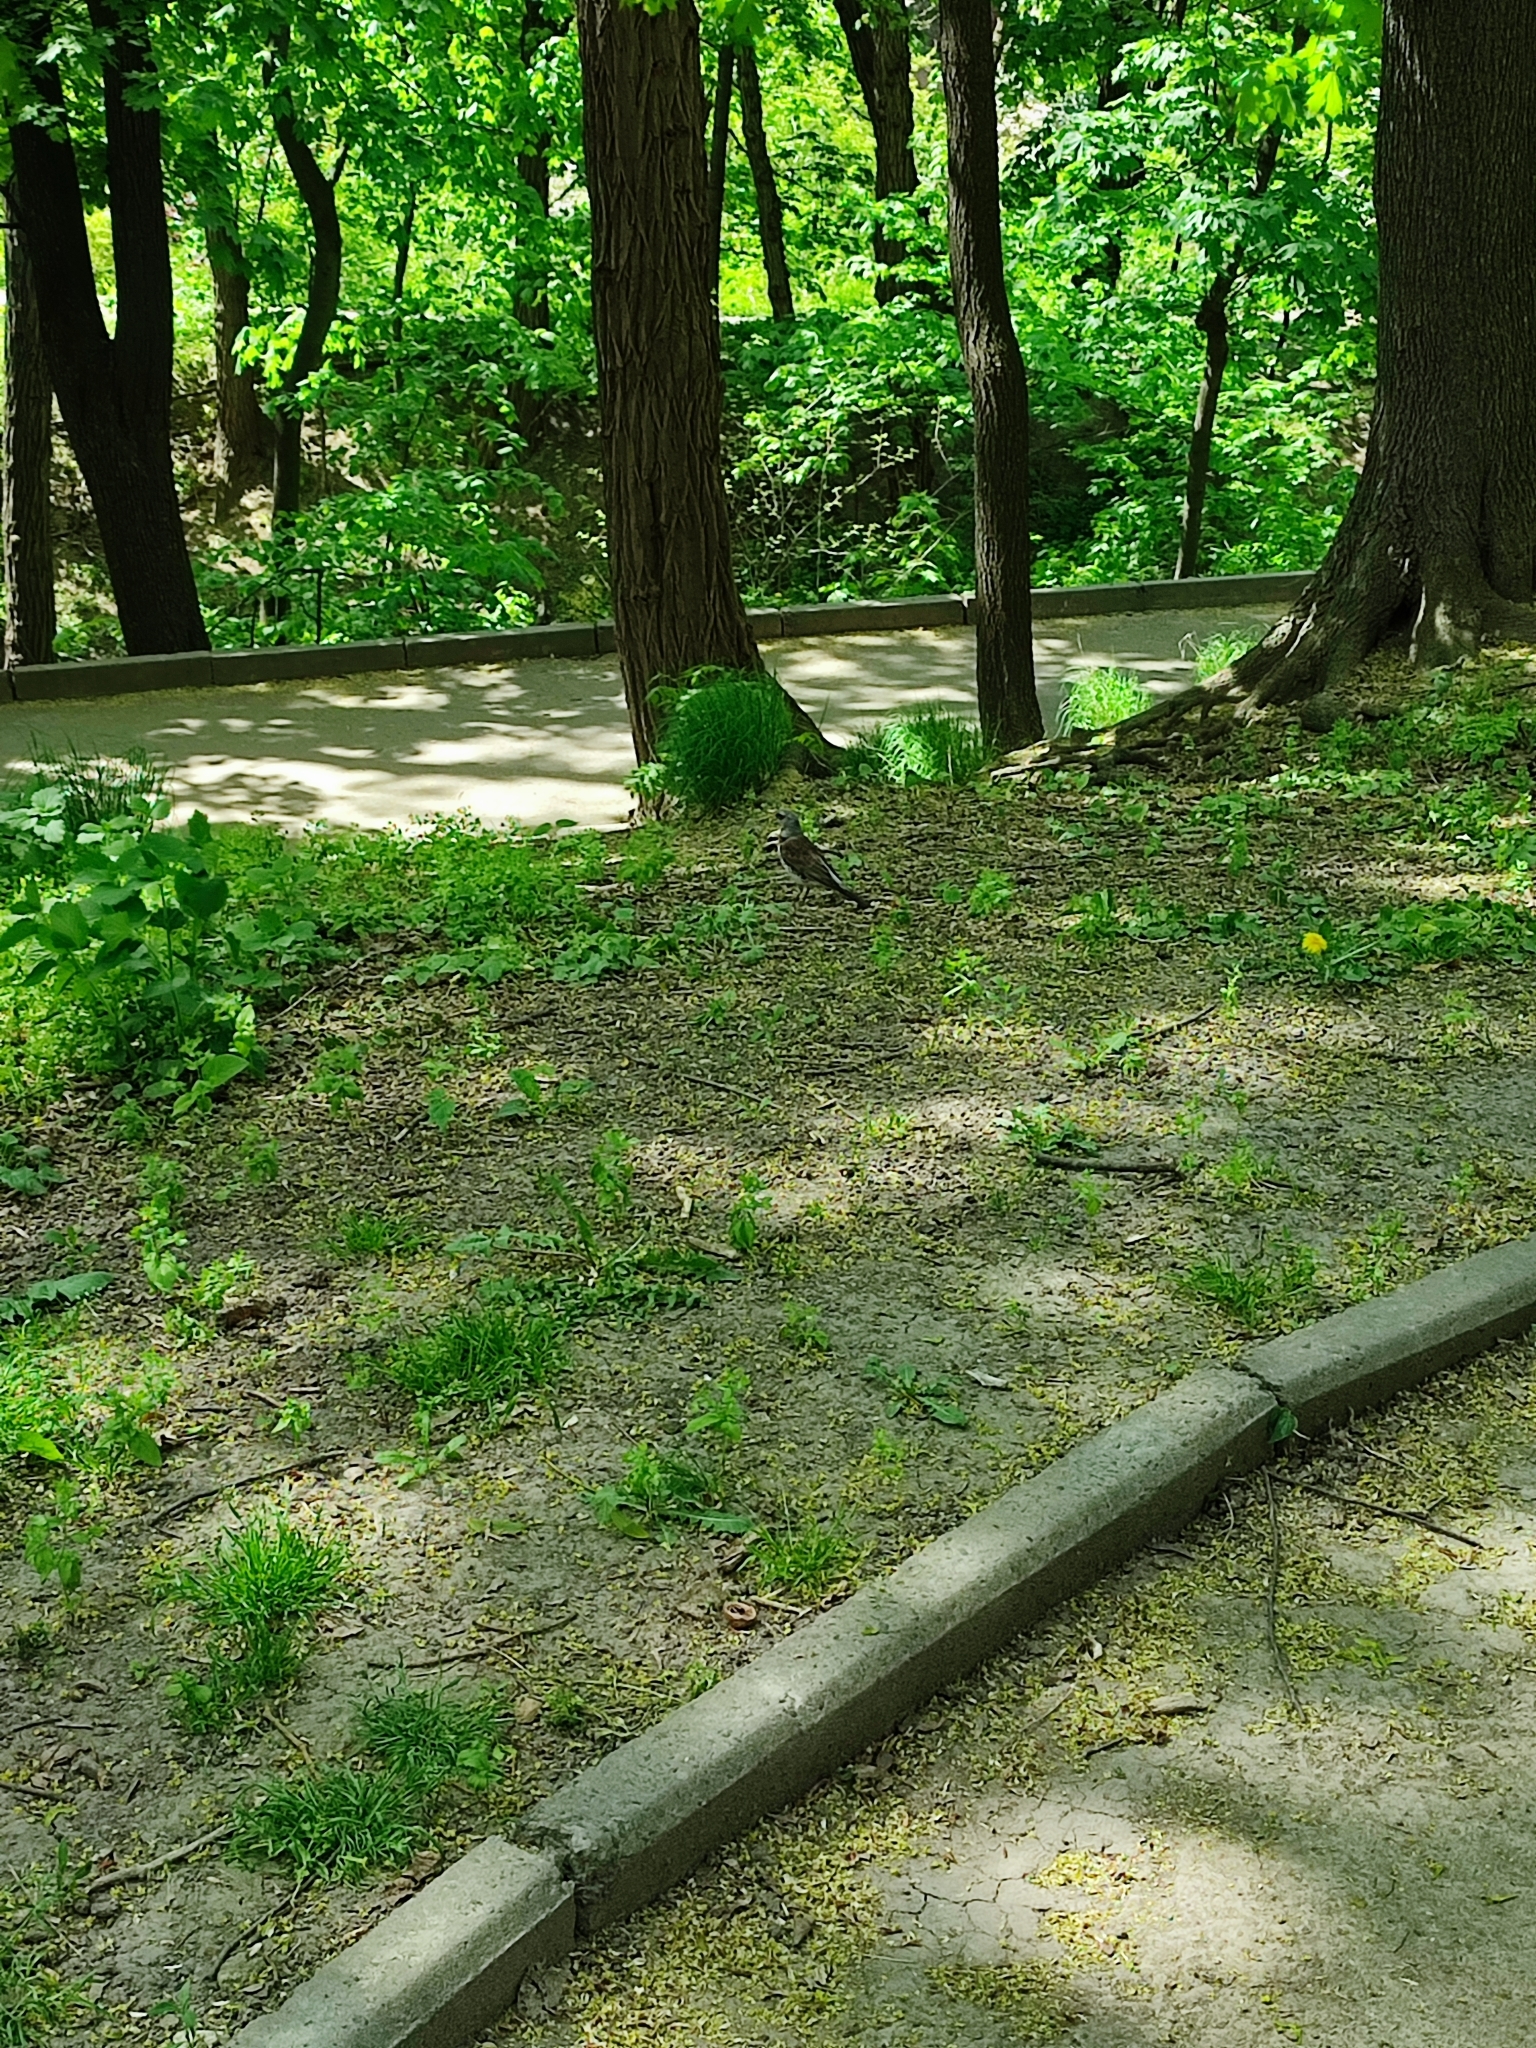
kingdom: Animalia
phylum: Chordata
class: Aves
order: Passeriformes
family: Turdidae
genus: Turdus
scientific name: Turdus pilaris
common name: Fieldfare
